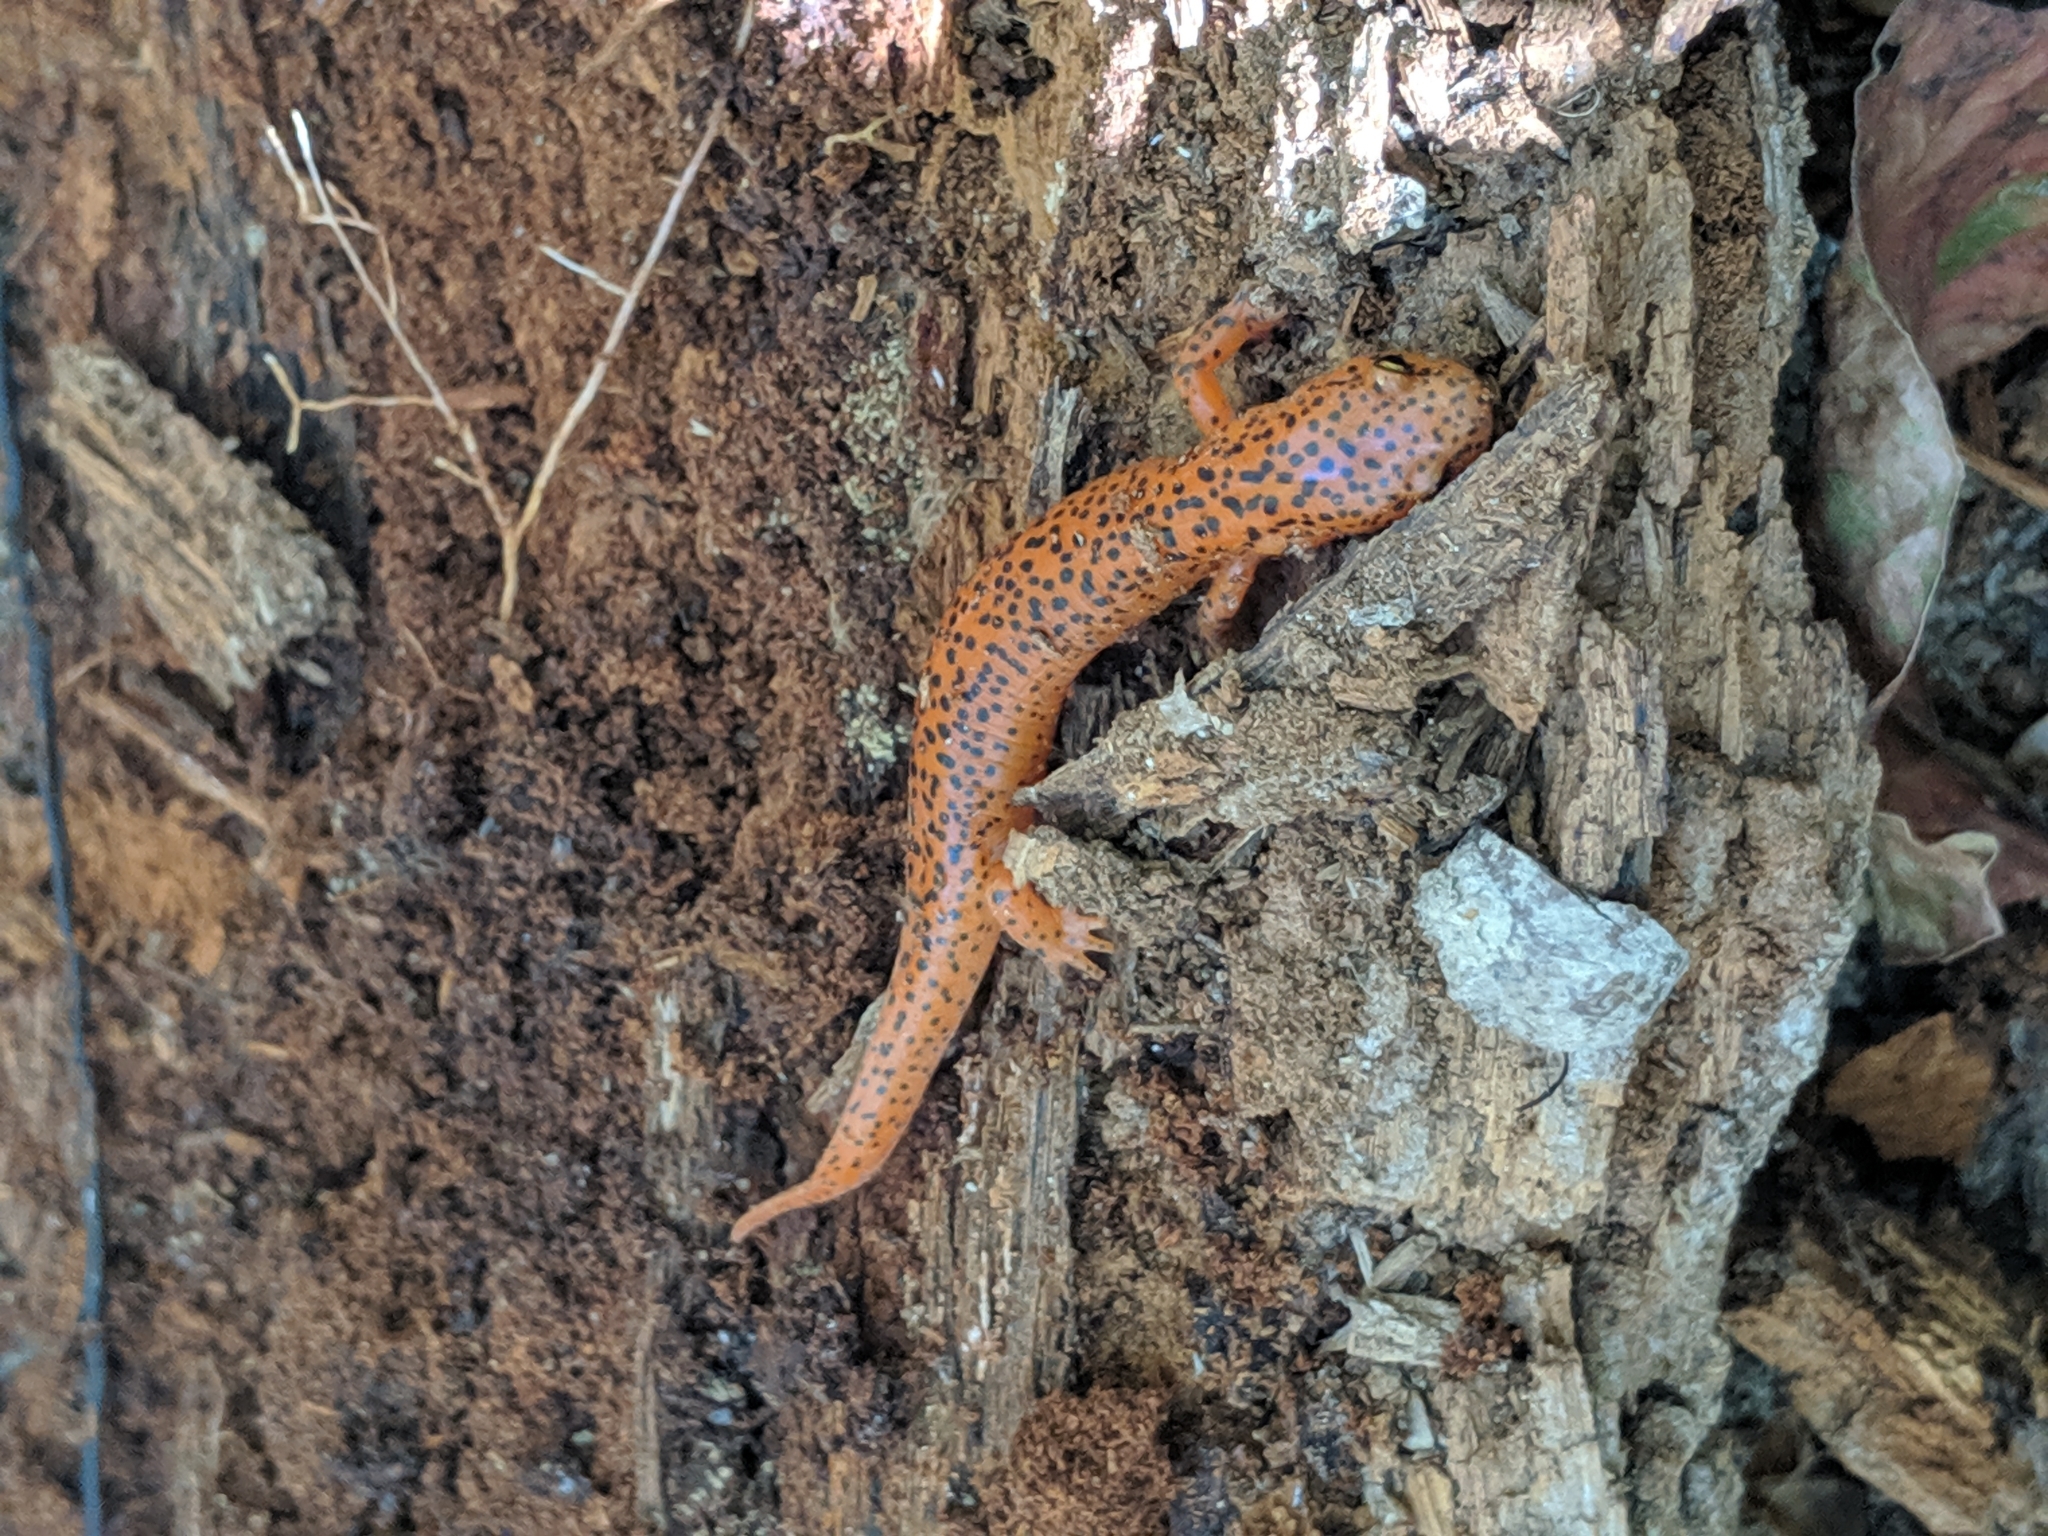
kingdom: Animalia
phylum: Chordata
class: Amphibia
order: Caudata
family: Plethodontidae
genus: Pseudotriton
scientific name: Pseudotriton ruber
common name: Red salamander
